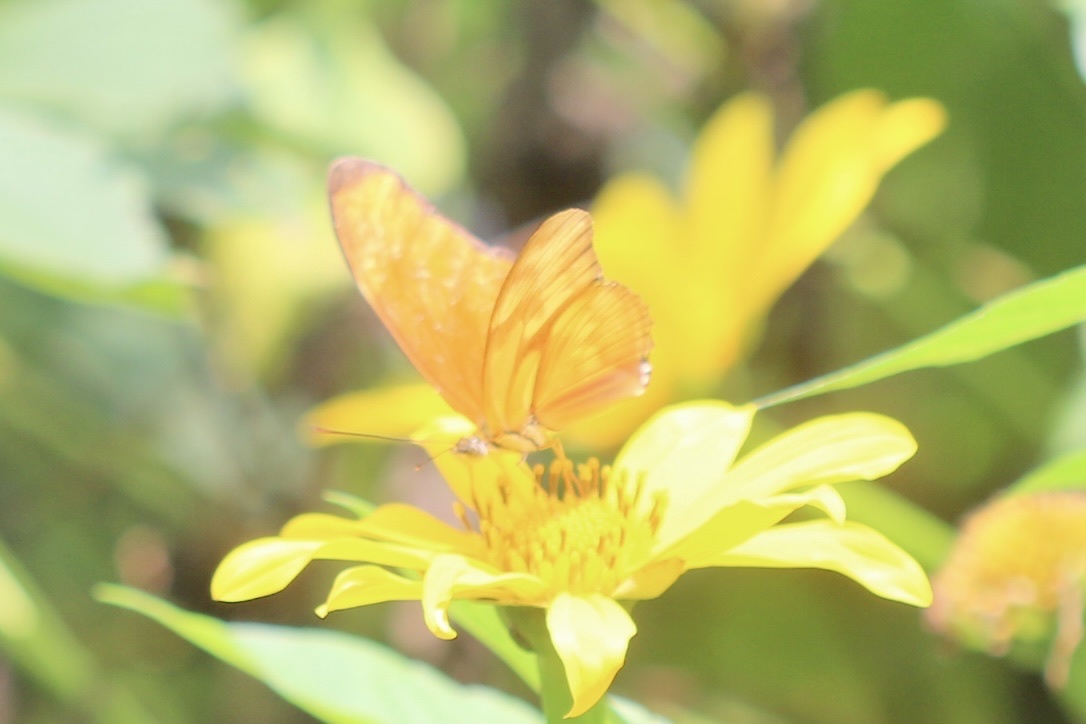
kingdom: Animalia
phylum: Arthropoda
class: Insecta
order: Lepidoptera
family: Nymphalidae
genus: Dryas
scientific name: Dryas iulia
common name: Flambeau
